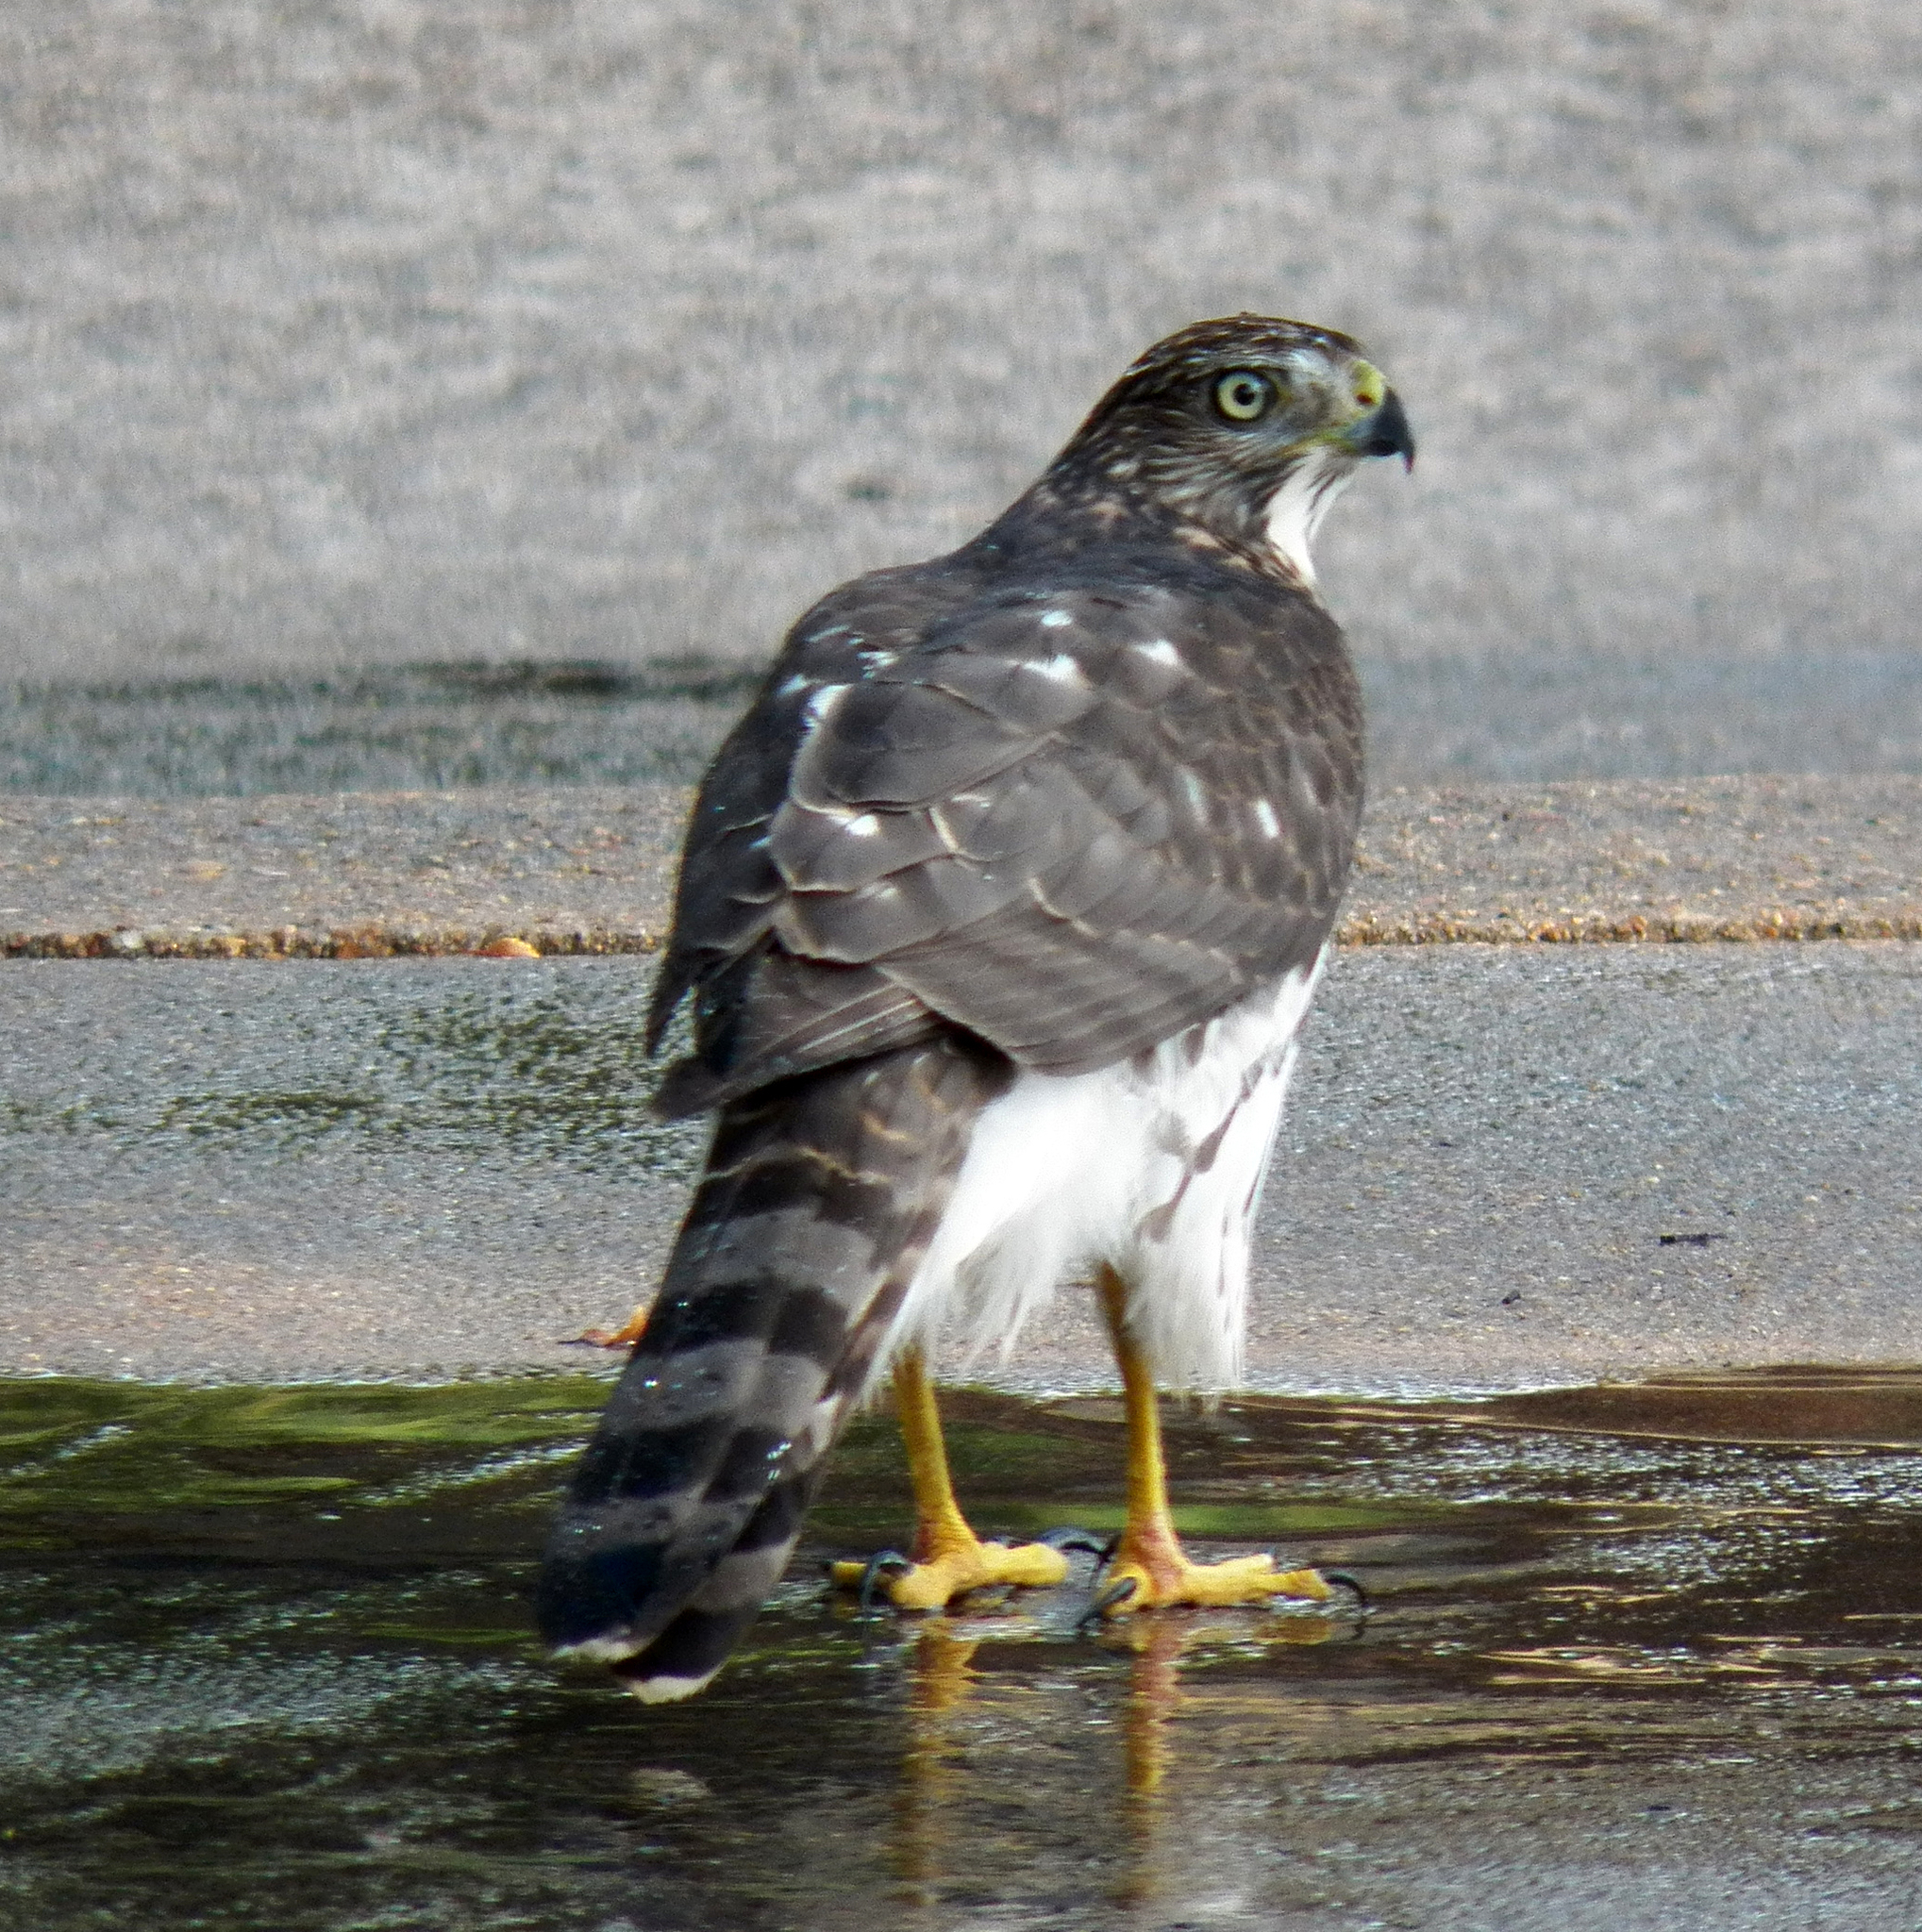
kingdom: Animalia
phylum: Chordata
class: Aves
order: Accipitriformes
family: Accipitridae
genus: Accipiter
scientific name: Accipiter cooperii
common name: Cooper's hawk
